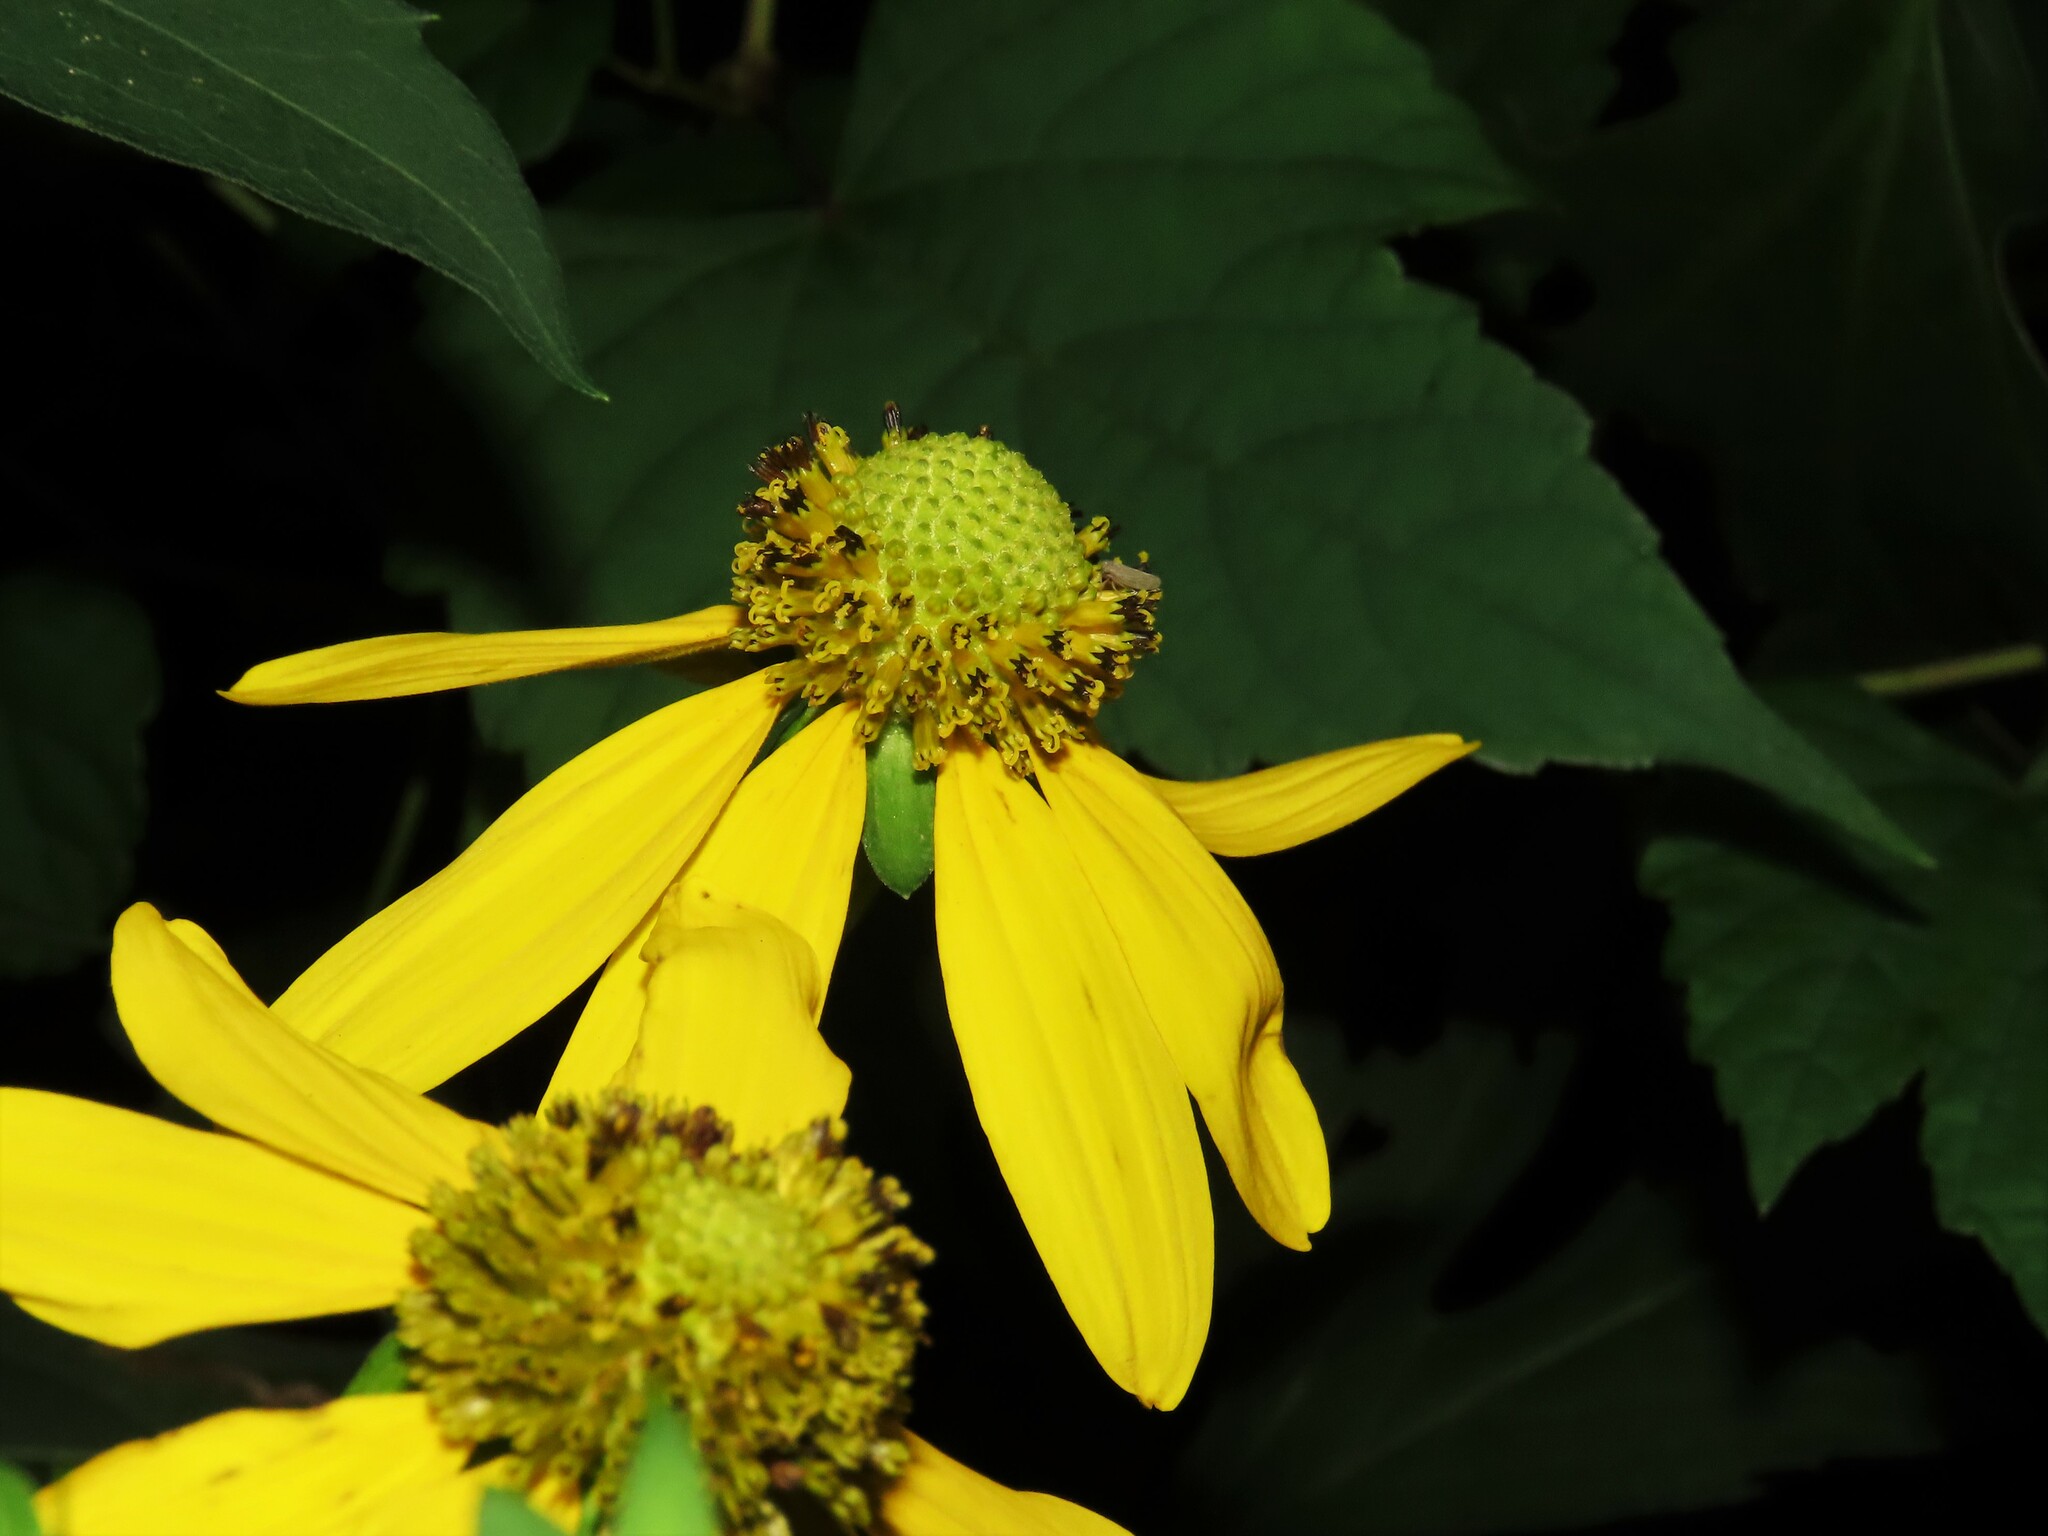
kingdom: Plantae
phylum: Tracheophyta
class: Magnoliopsida
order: Asterales
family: Asteraceae
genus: Rudbeckia
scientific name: Rudbeckia laciniata
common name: Coneflower
